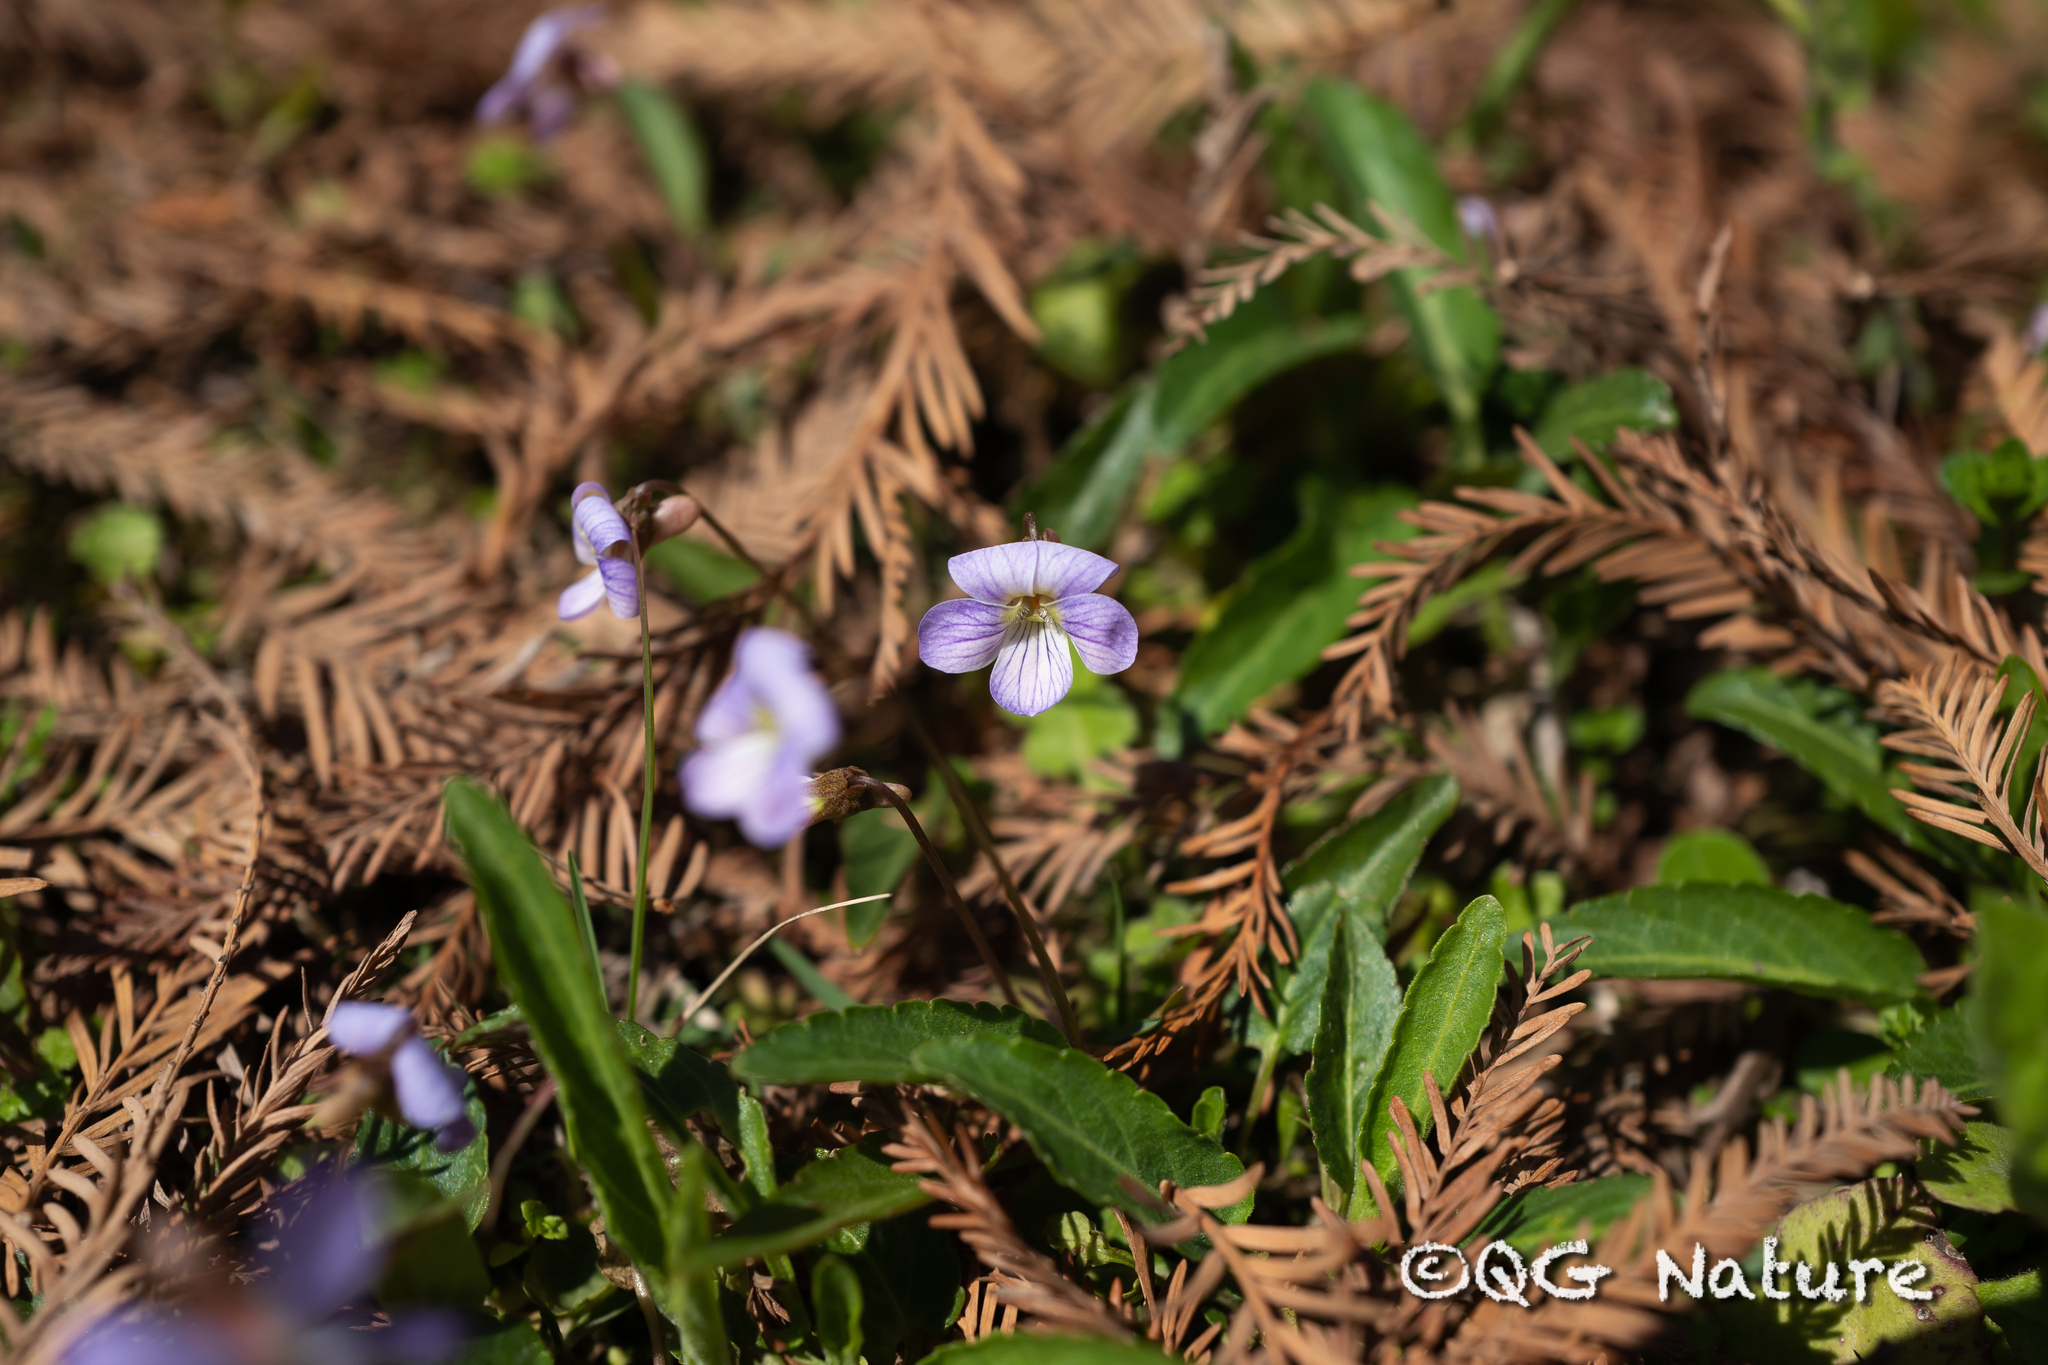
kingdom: Plantae
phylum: Tracheophyta
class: Magnoliopsida
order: Malpighiales
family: Violaceae
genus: Viola
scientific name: Viola betonicifolia
